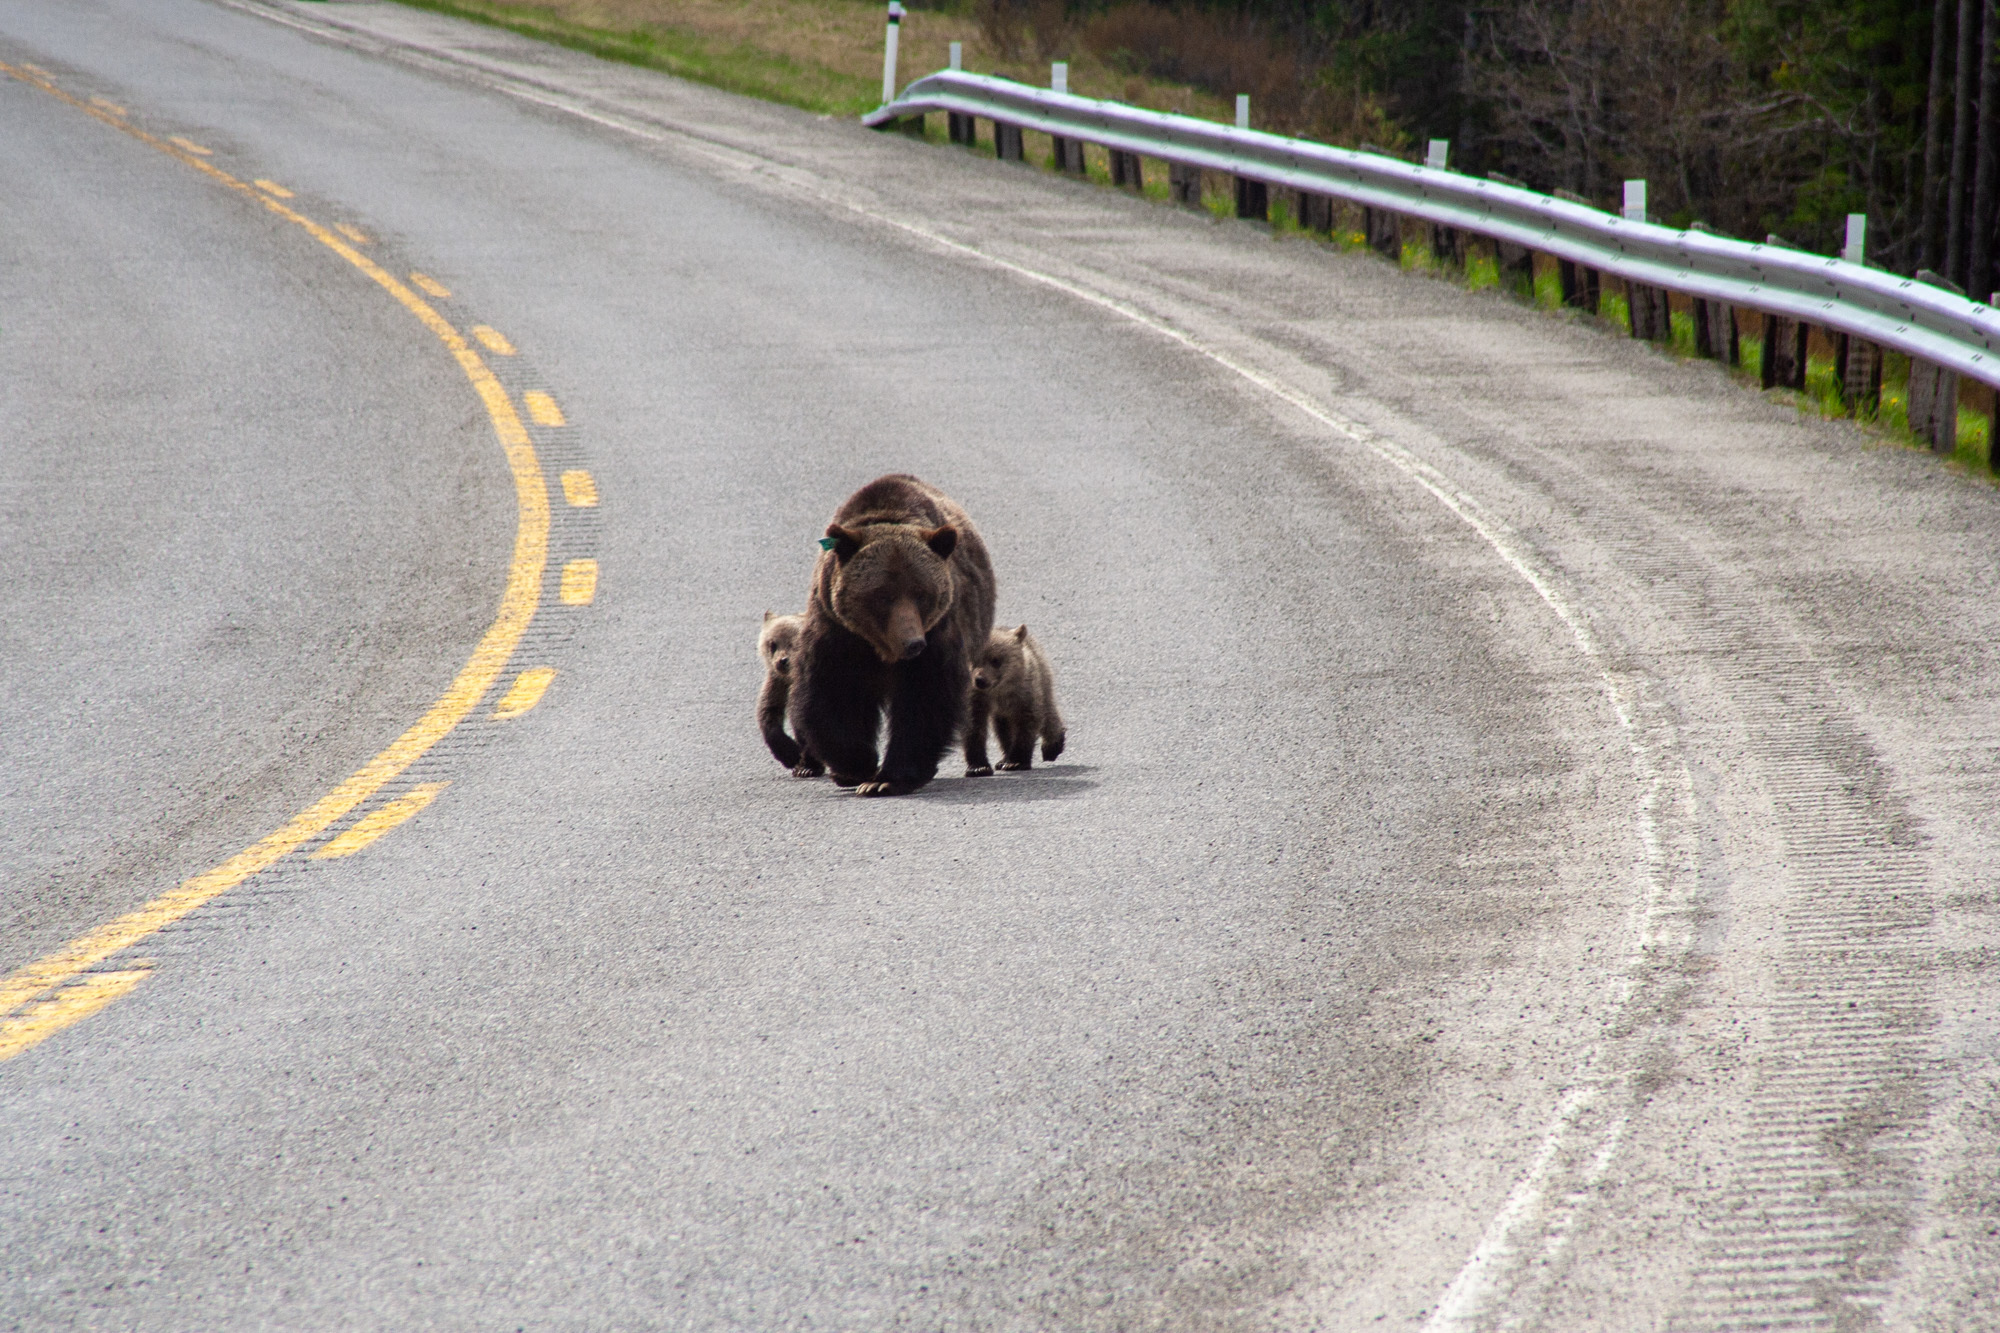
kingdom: Animalia
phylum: Chordata
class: Mammalia
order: Carnivora
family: Ursidae
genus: Ursus
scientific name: Ursus arctos
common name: Brown bear
